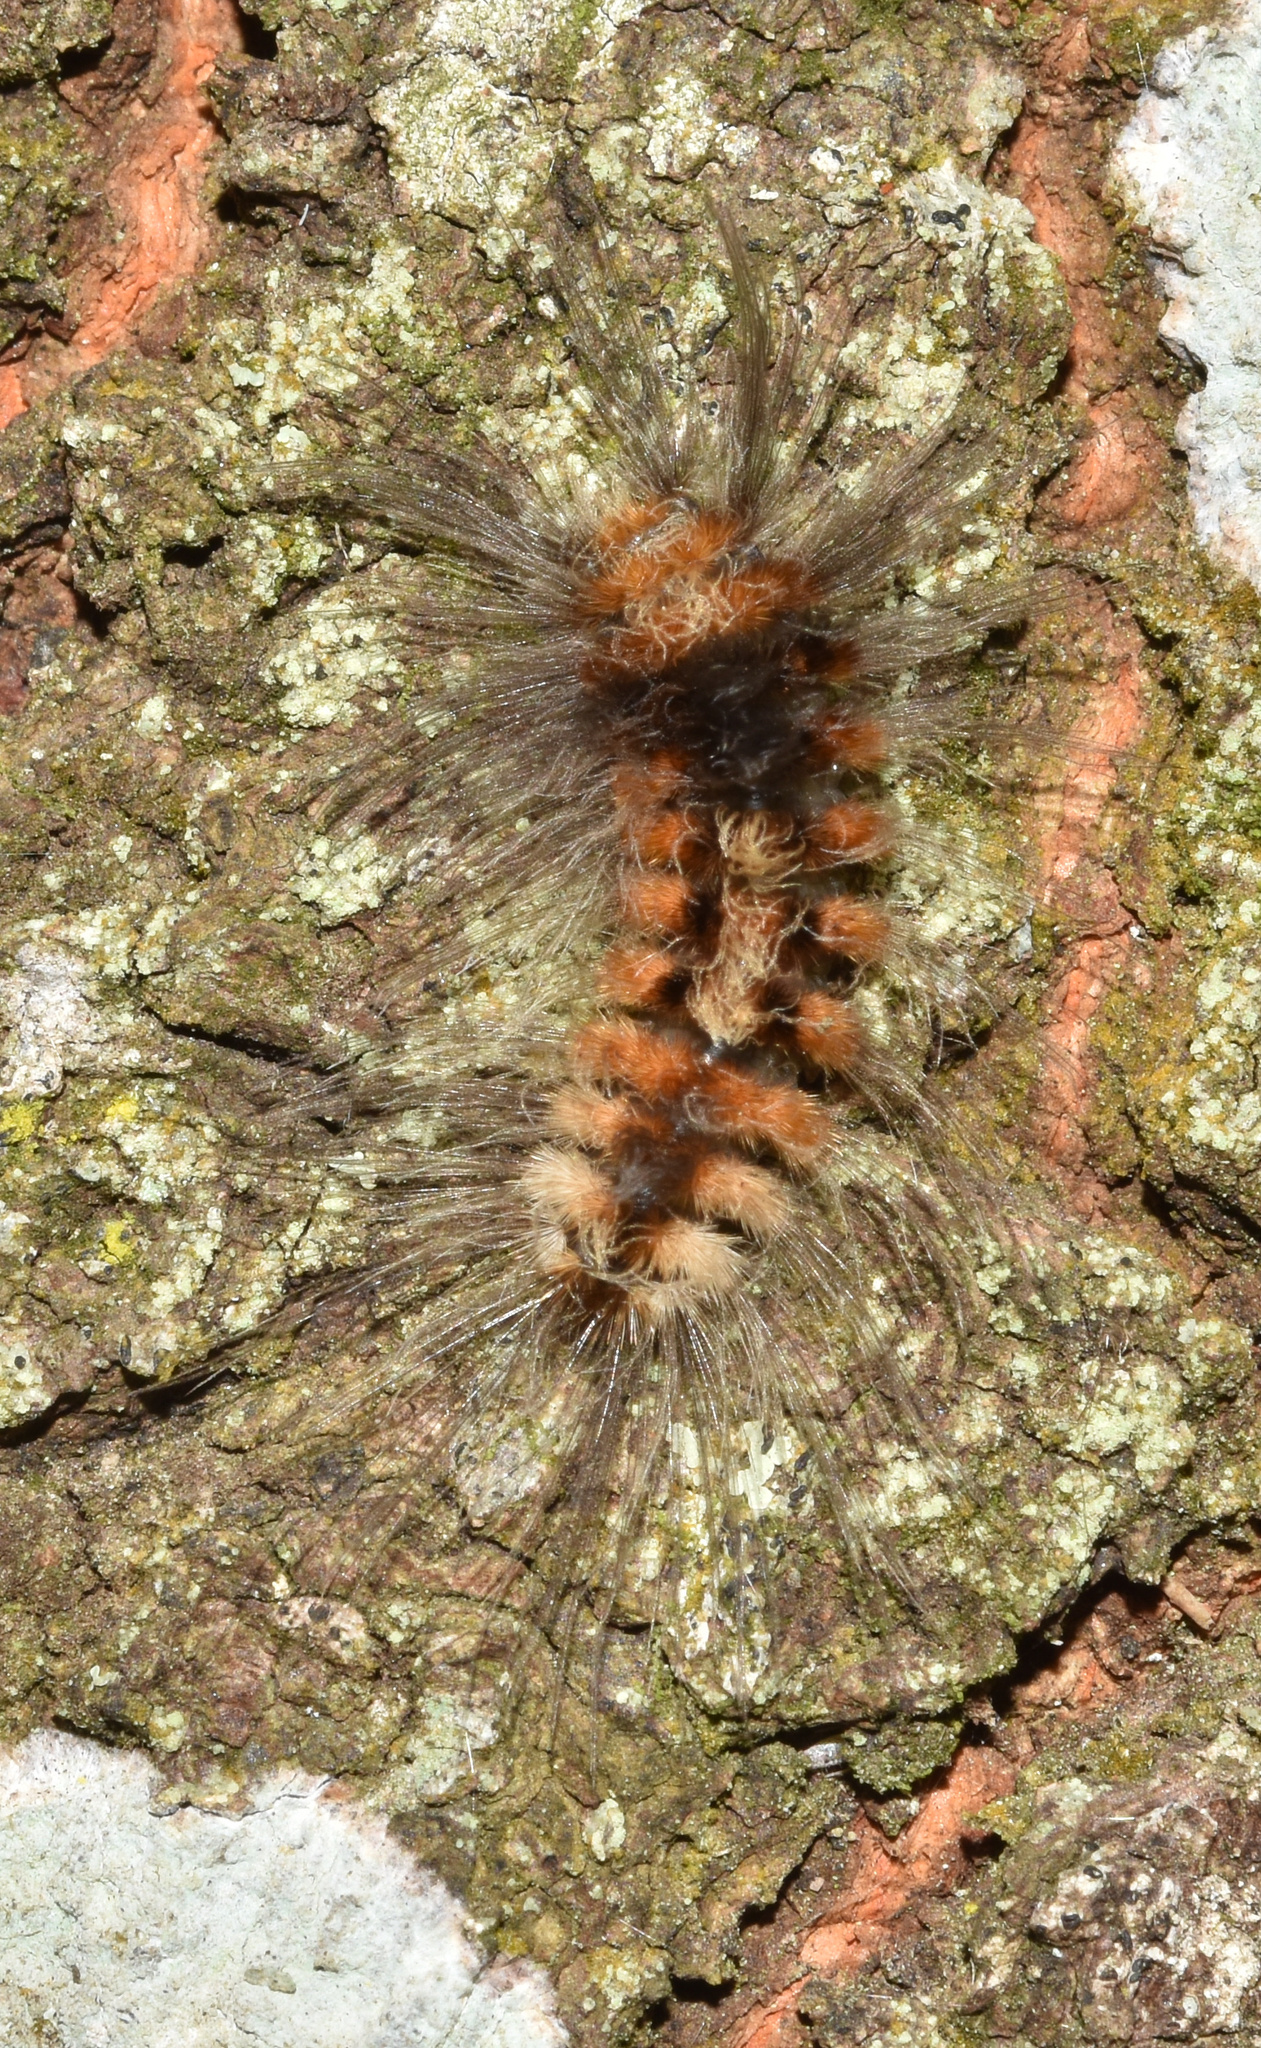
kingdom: Animalia
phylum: Arthropoda
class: Insecta
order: Lepidoptera
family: Erebidae
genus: Tumicla
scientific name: Tumicla sagenaria
